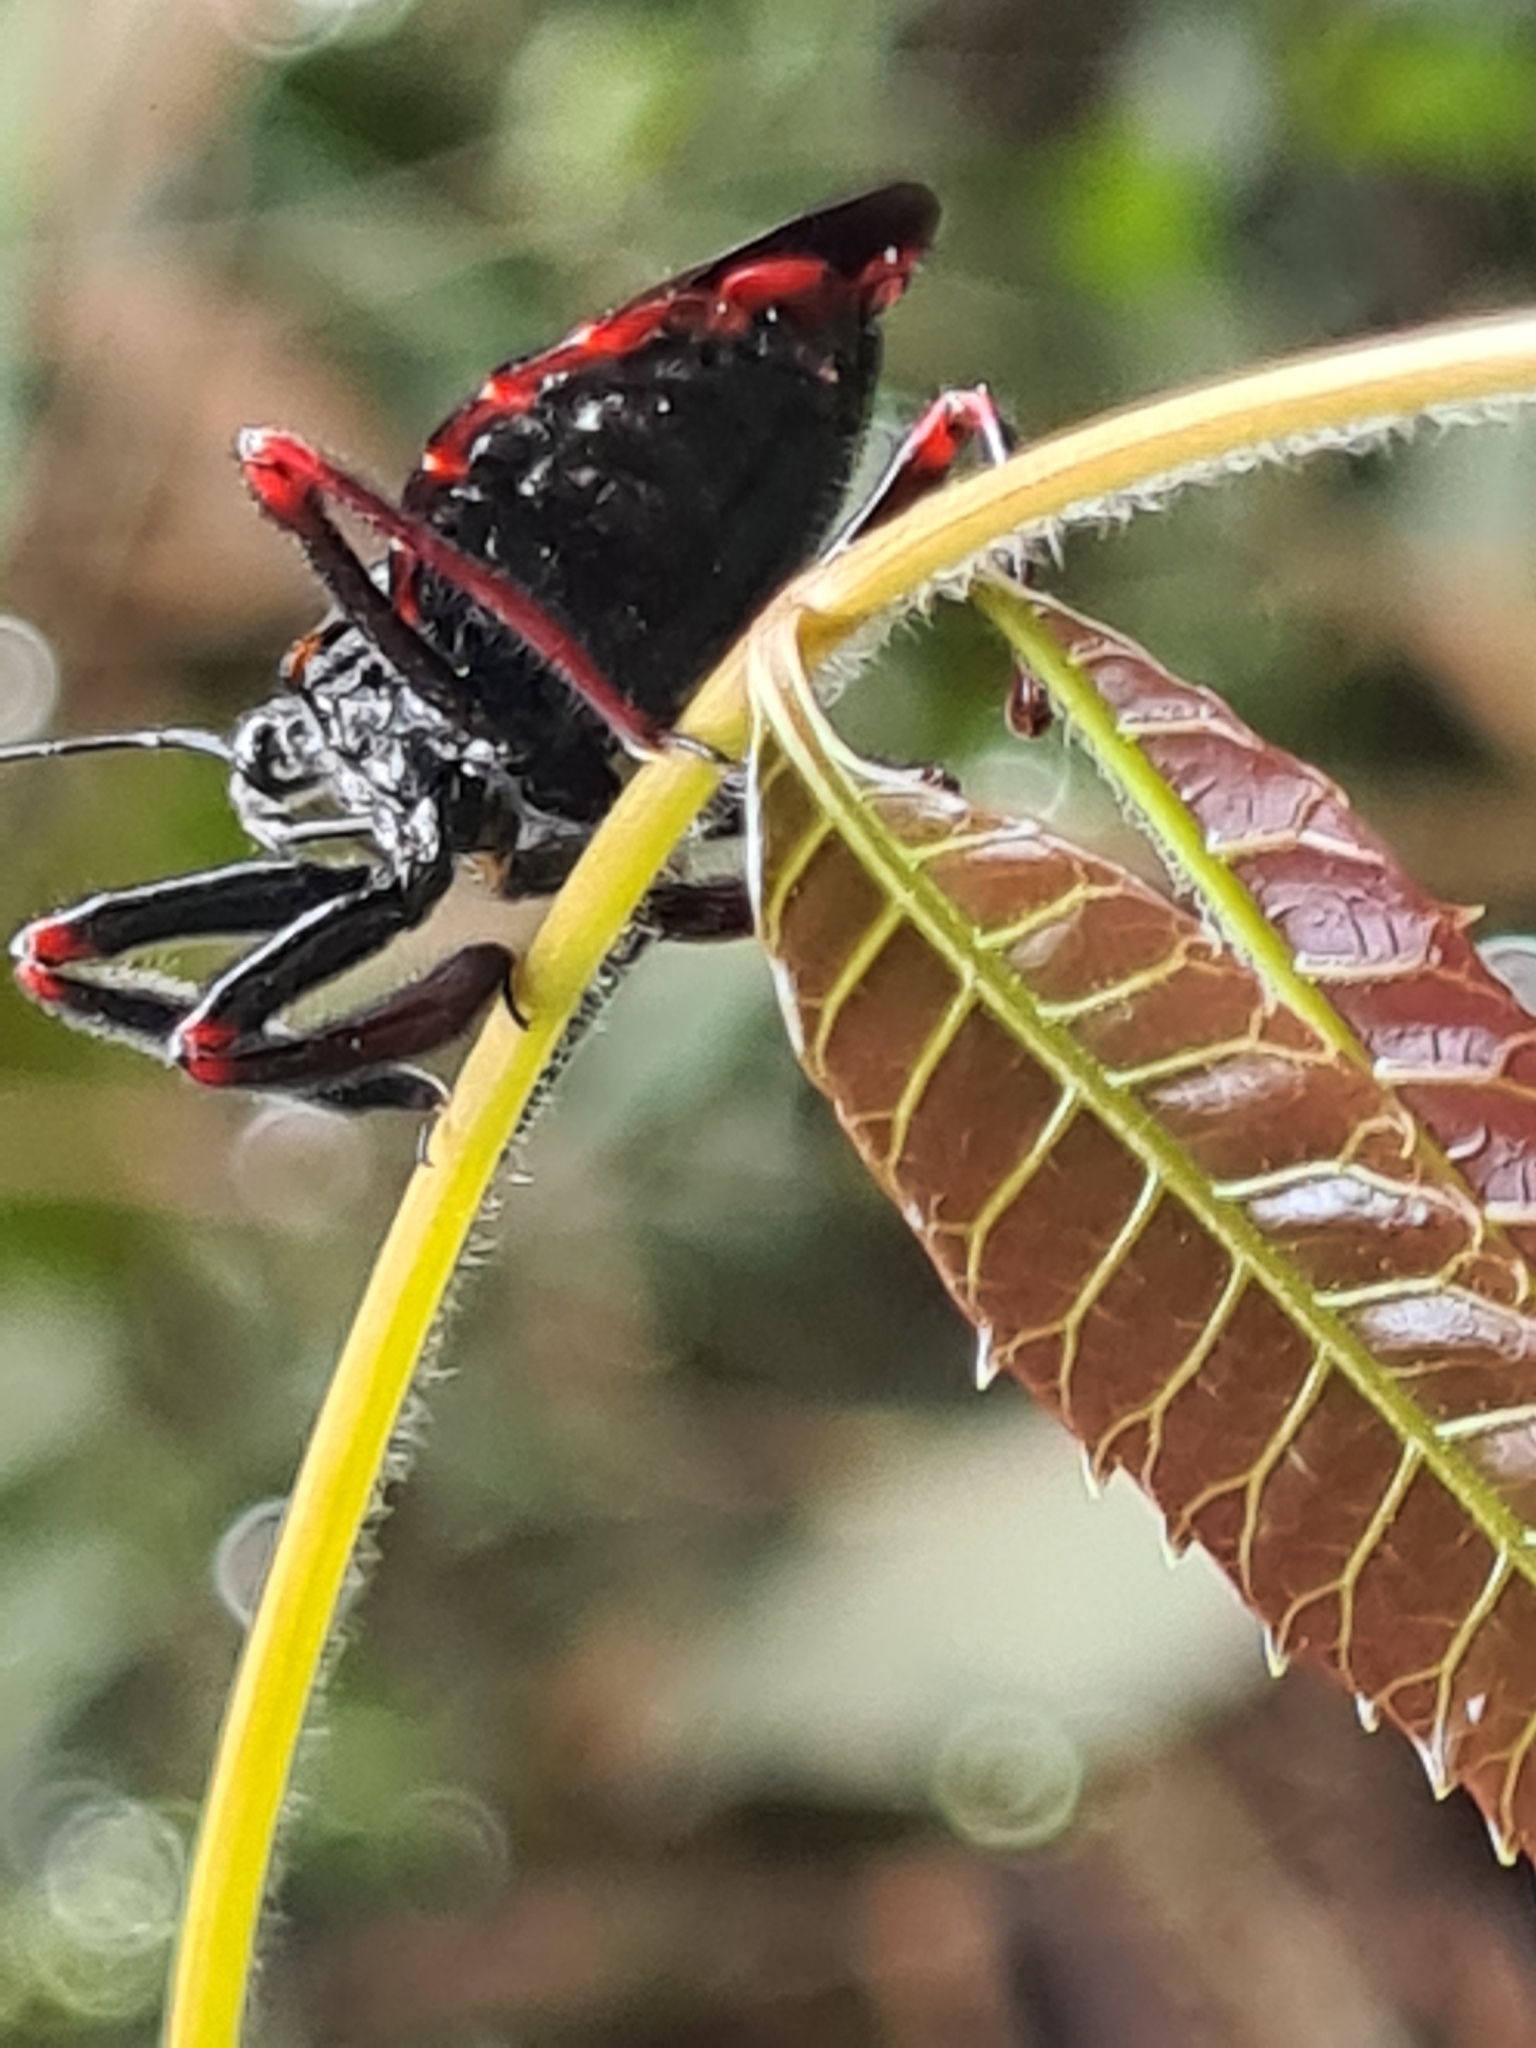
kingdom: Animalia
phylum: Arthropoda
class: Insecta
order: Hemiptera
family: Reduviidae
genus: Apiomerus
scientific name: Apiomerus geniculatus
